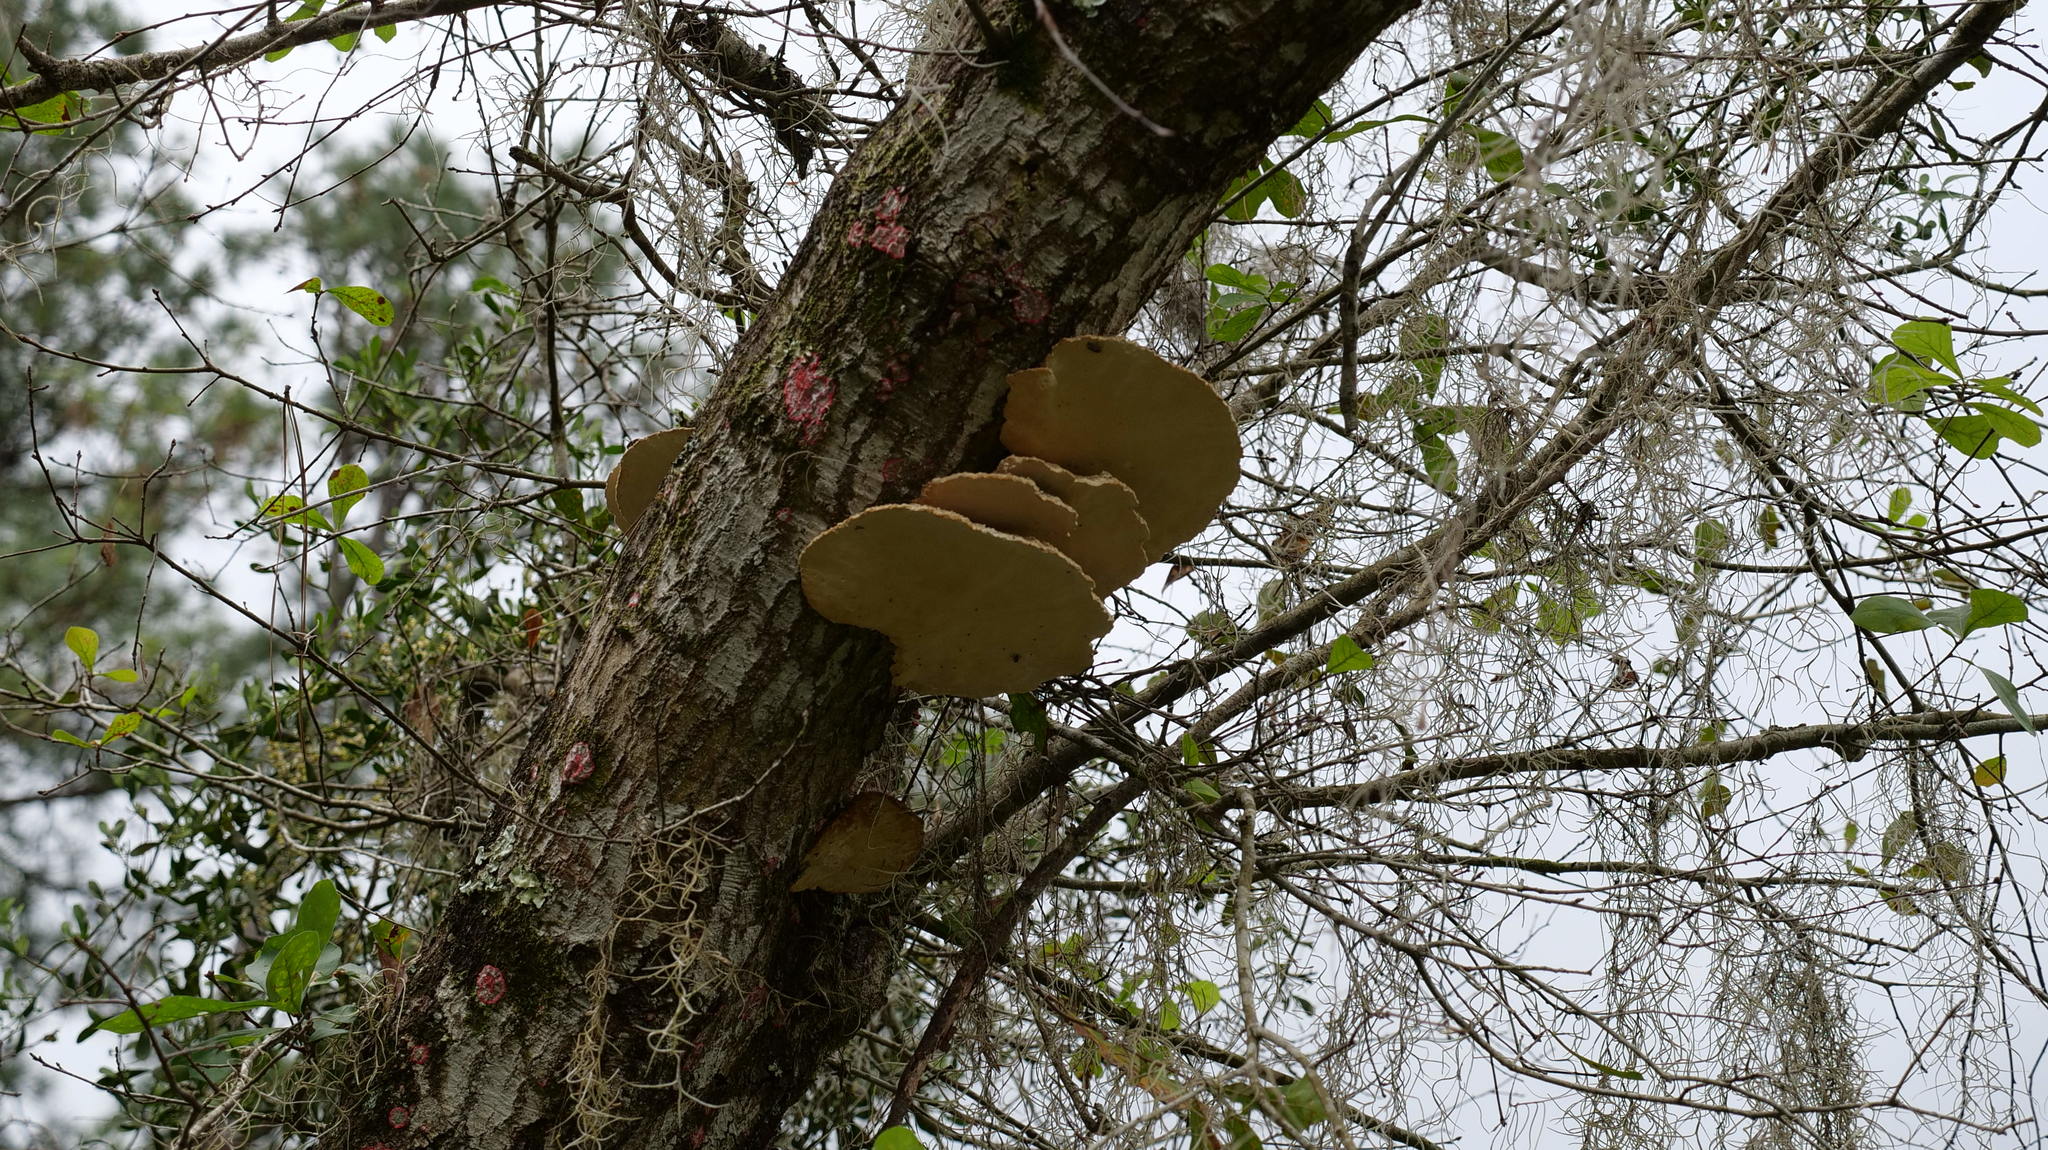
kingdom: Fungi
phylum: Basidiomycota
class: Agaricomycetes
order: Polyporales
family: Laetiporaceae
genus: Laetiporus
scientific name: Laetiporus gilbertsonii
